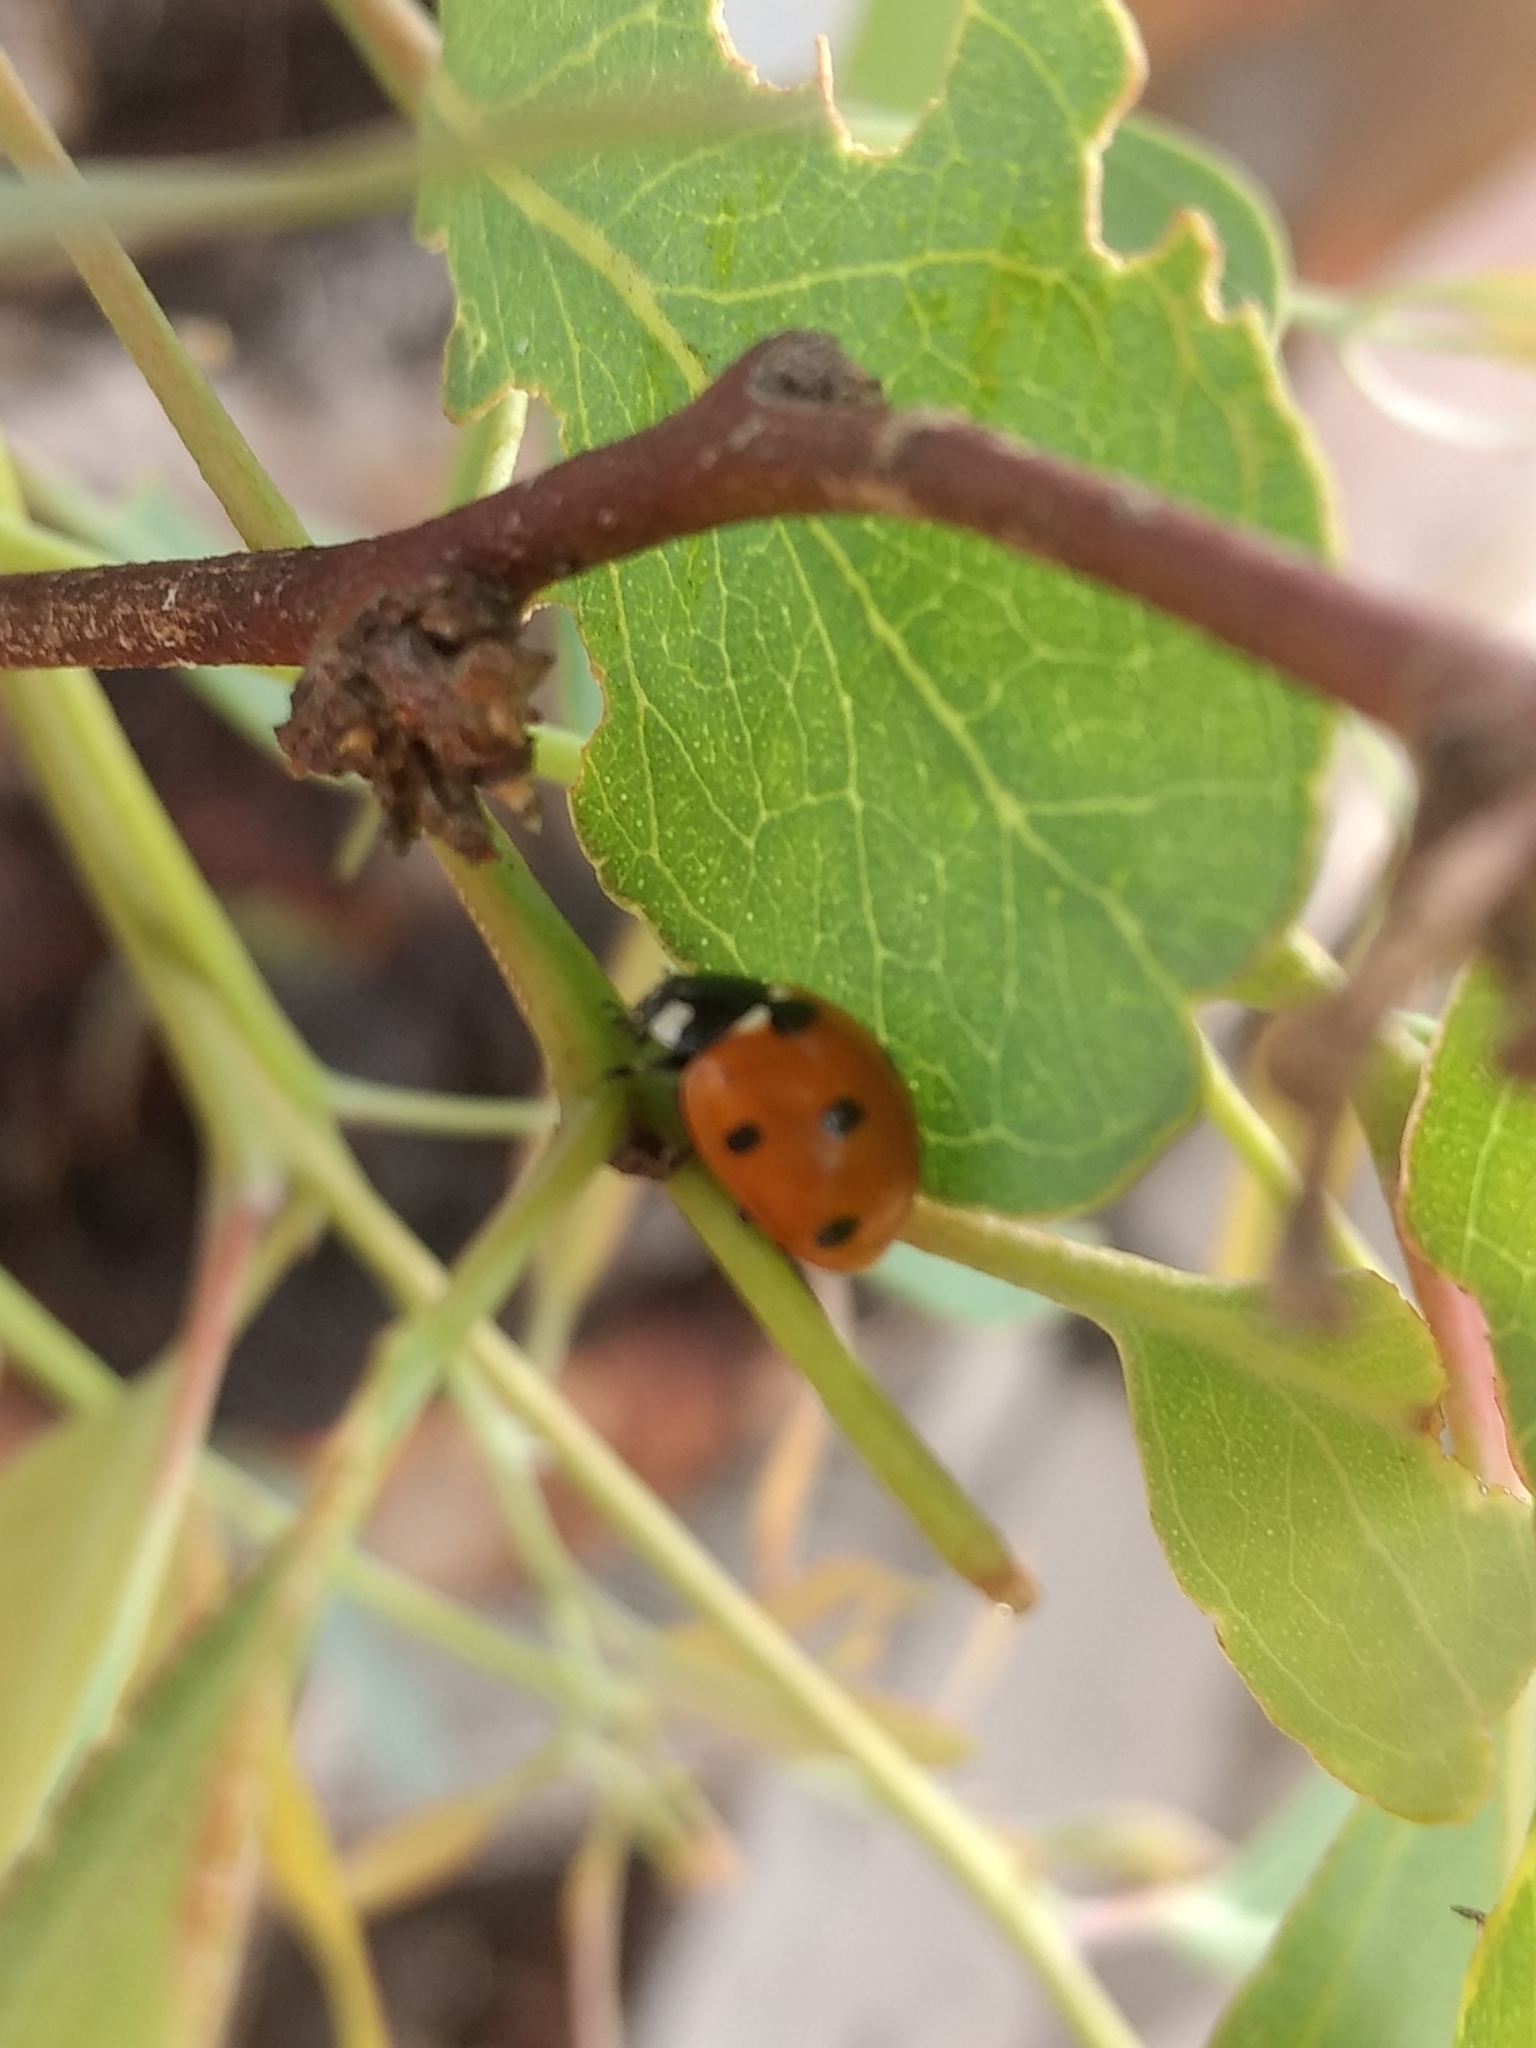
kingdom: Animalia
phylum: Arthropoda
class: Insecta
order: Coleoptera
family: Coccinellidae
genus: Coccinella
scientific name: Coccinella septempunctata
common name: Sevenspotted lady beetle
